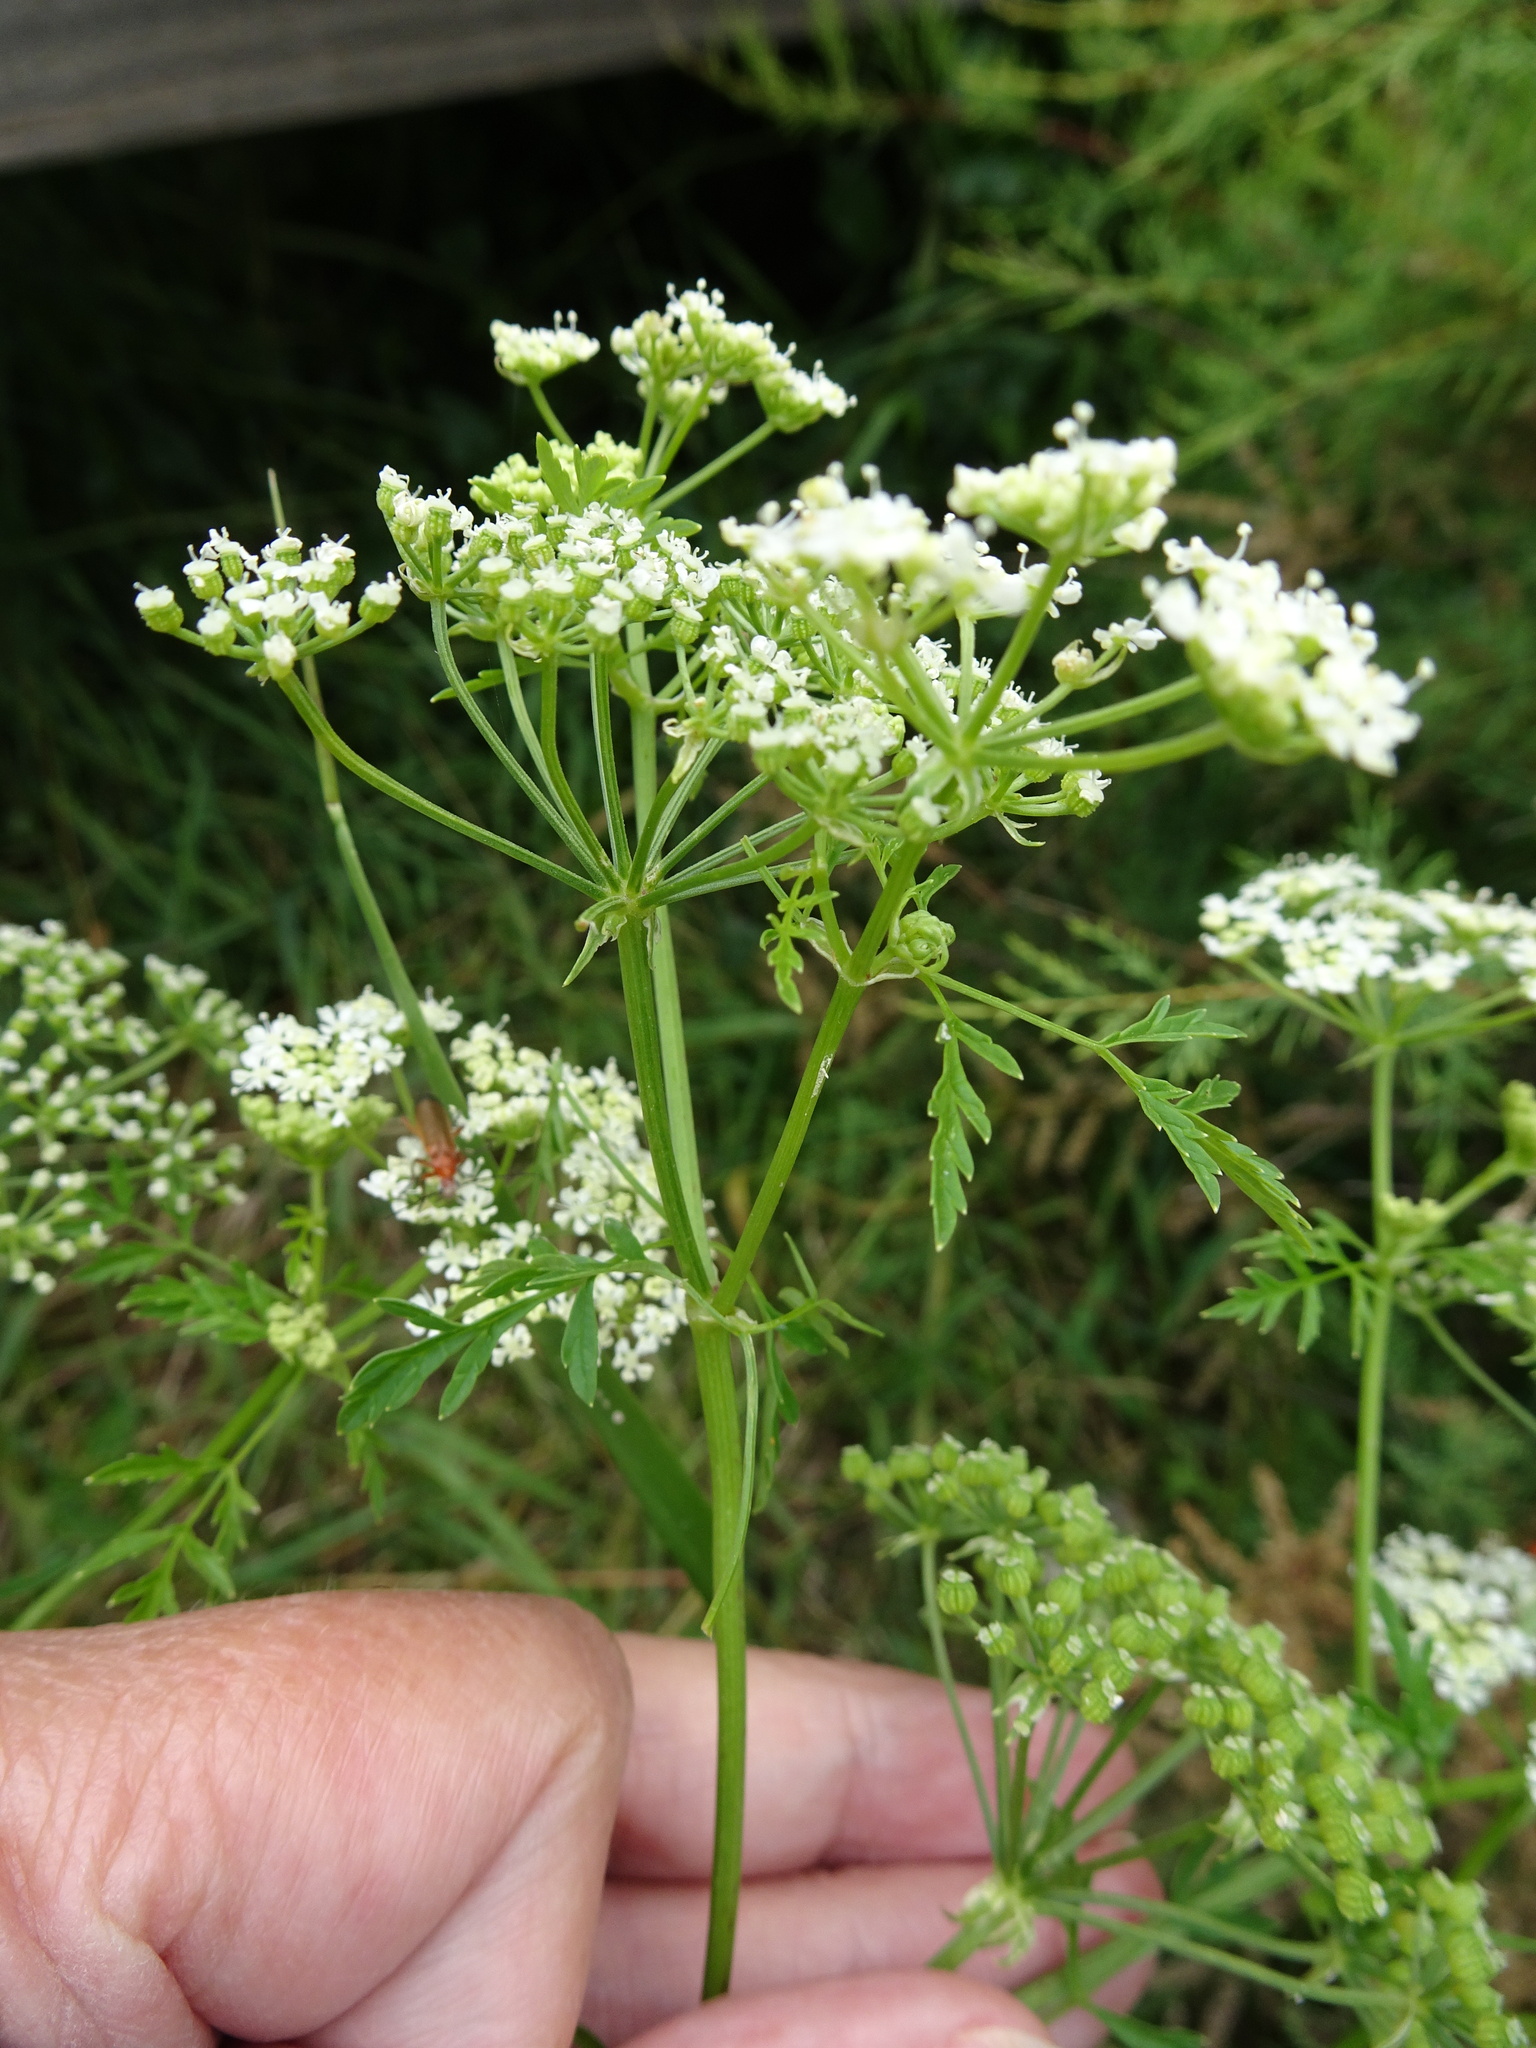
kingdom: Plantae
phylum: Tracheophyta
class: Magnoliopsida
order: Apiales
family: Apiaceae
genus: Conium
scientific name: Conium maculatum
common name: Hemlock
